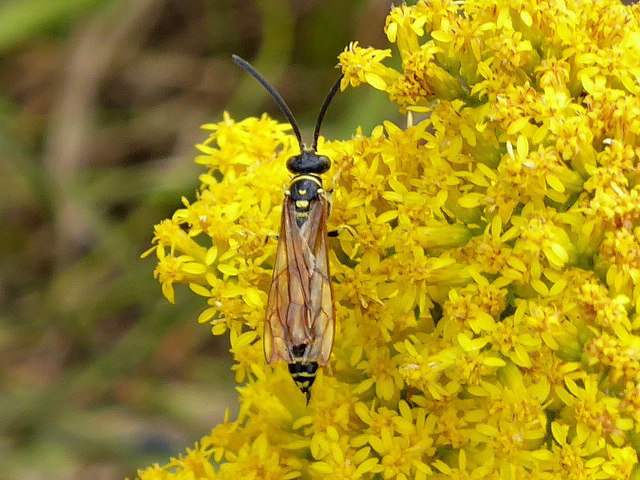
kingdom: Animalia
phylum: Arthropoda
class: Insecta
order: Hymenoptera
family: Tiphiidae
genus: Myzinum
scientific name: Myzinum quinquecinctum
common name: Five-banded thynnid wasp
